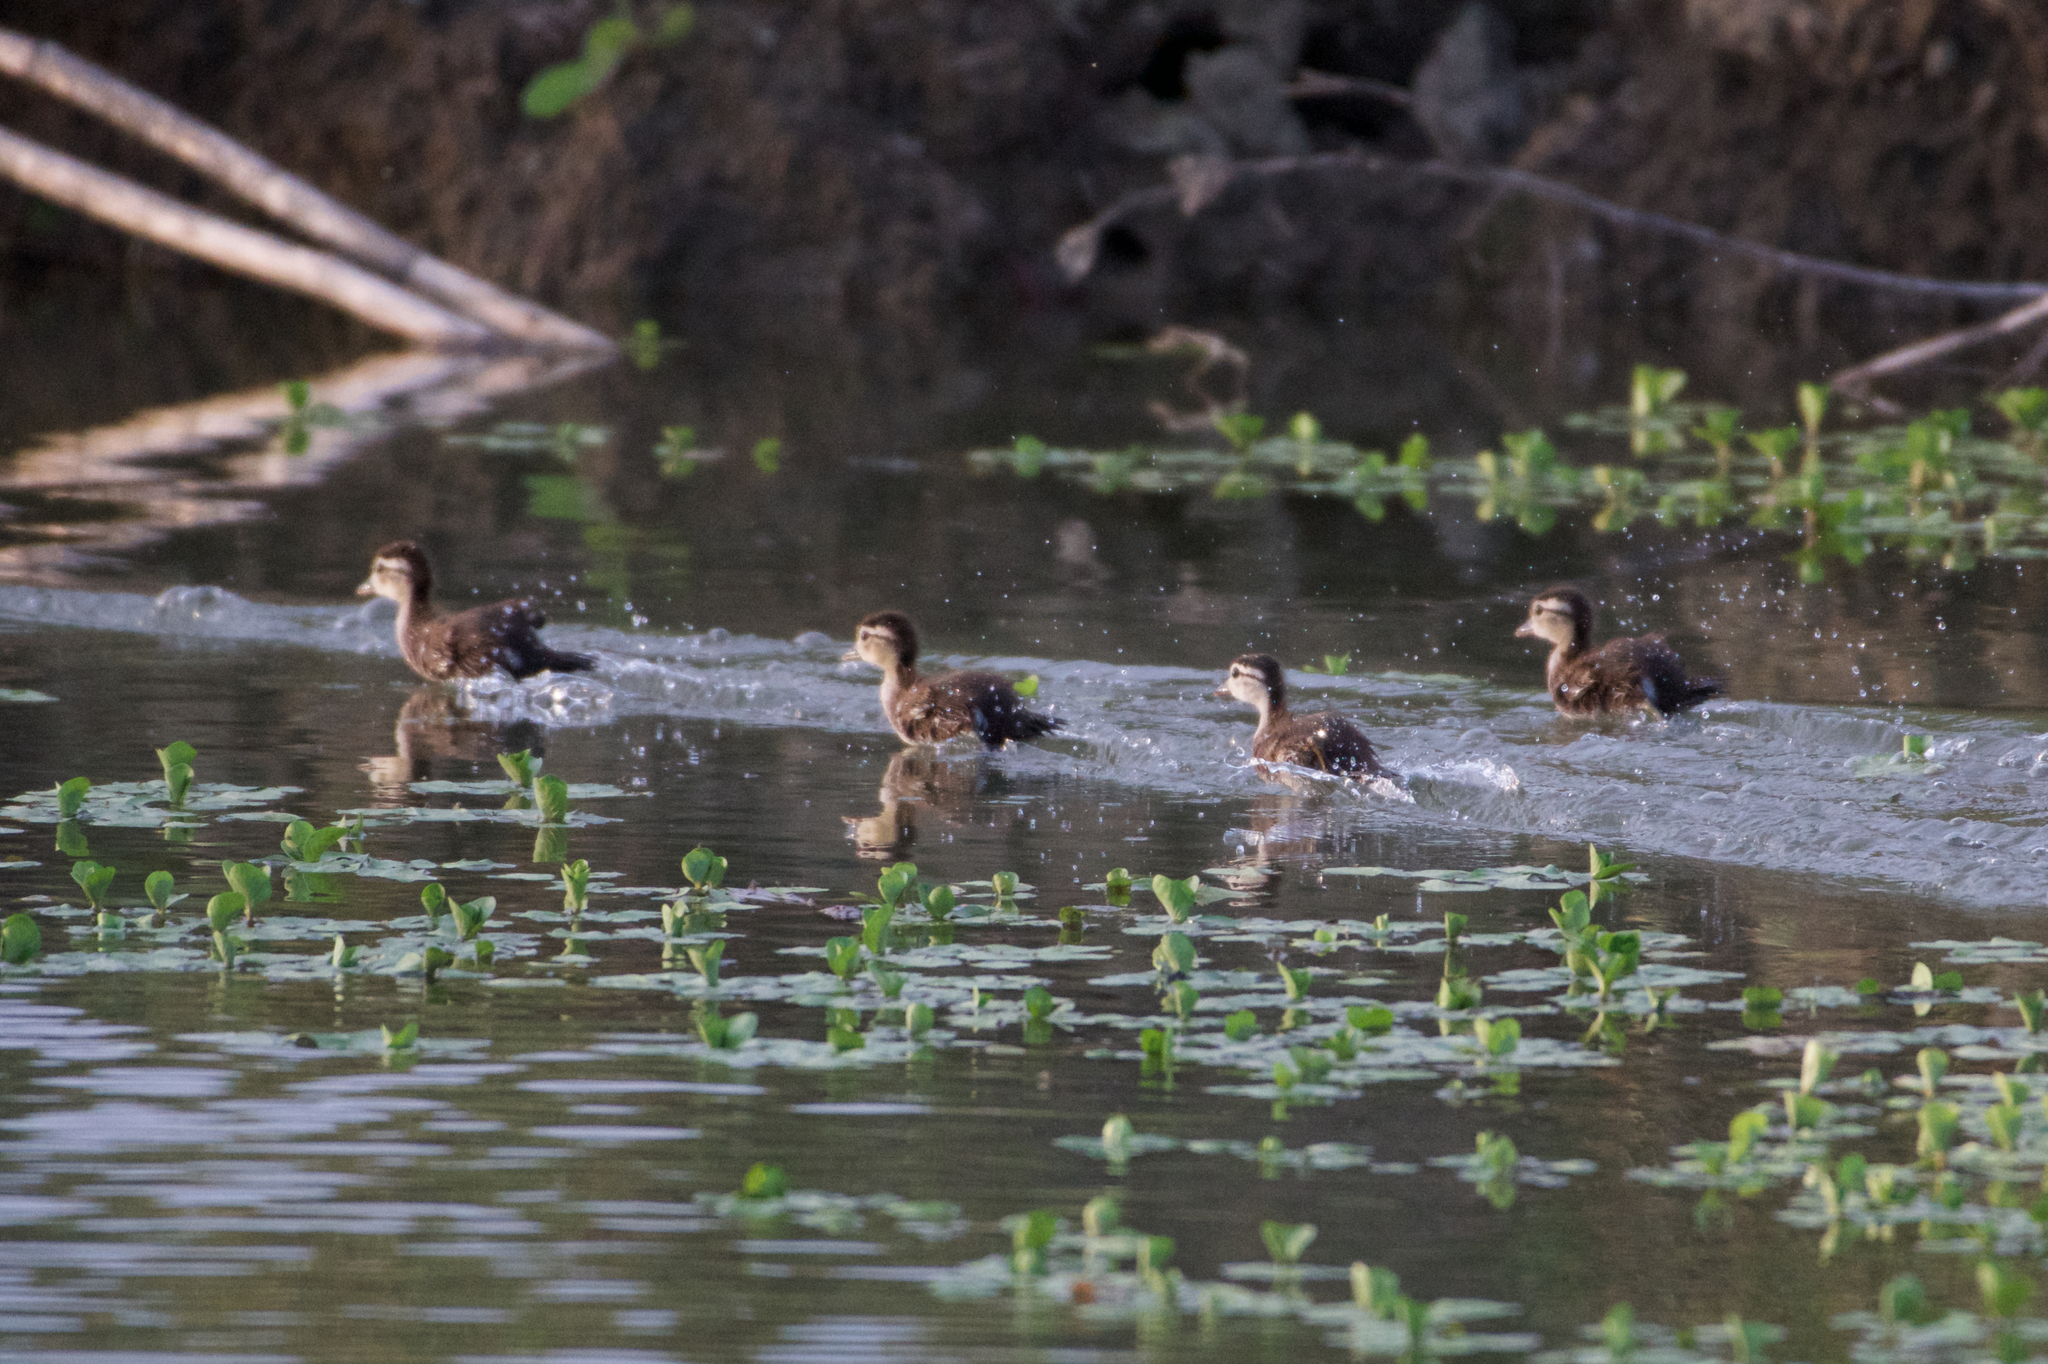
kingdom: Animalia
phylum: Chordata
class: Aves
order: Anseriformes
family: Anatidae
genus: Aix
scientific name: Aix sponsa
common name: Wood duck
